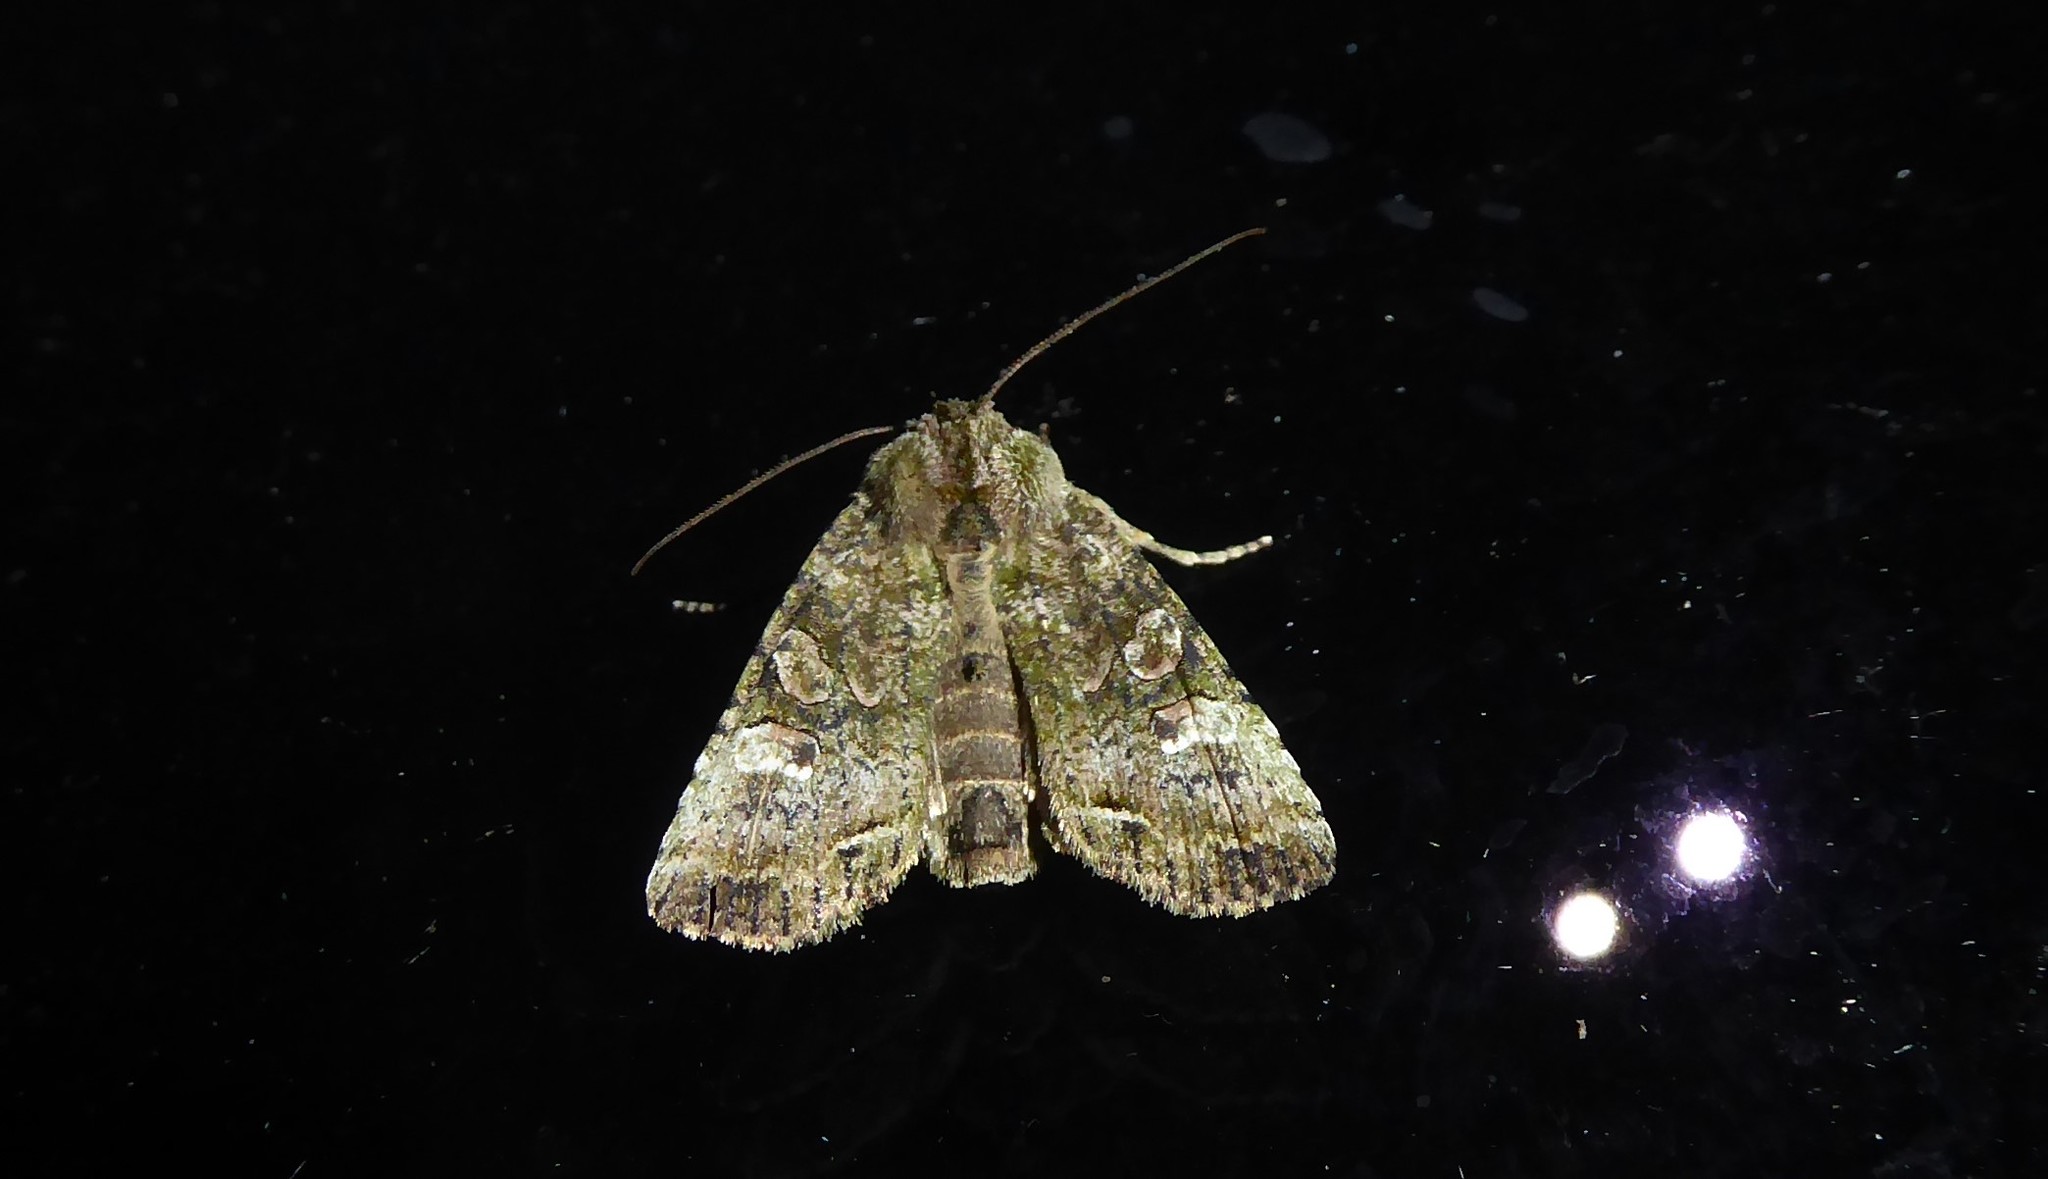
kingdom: Animalia
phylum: Arthropoda
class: Insecta
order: Lepidoptera
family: Noctuidae
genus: Meterana
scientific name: Meterana levis
